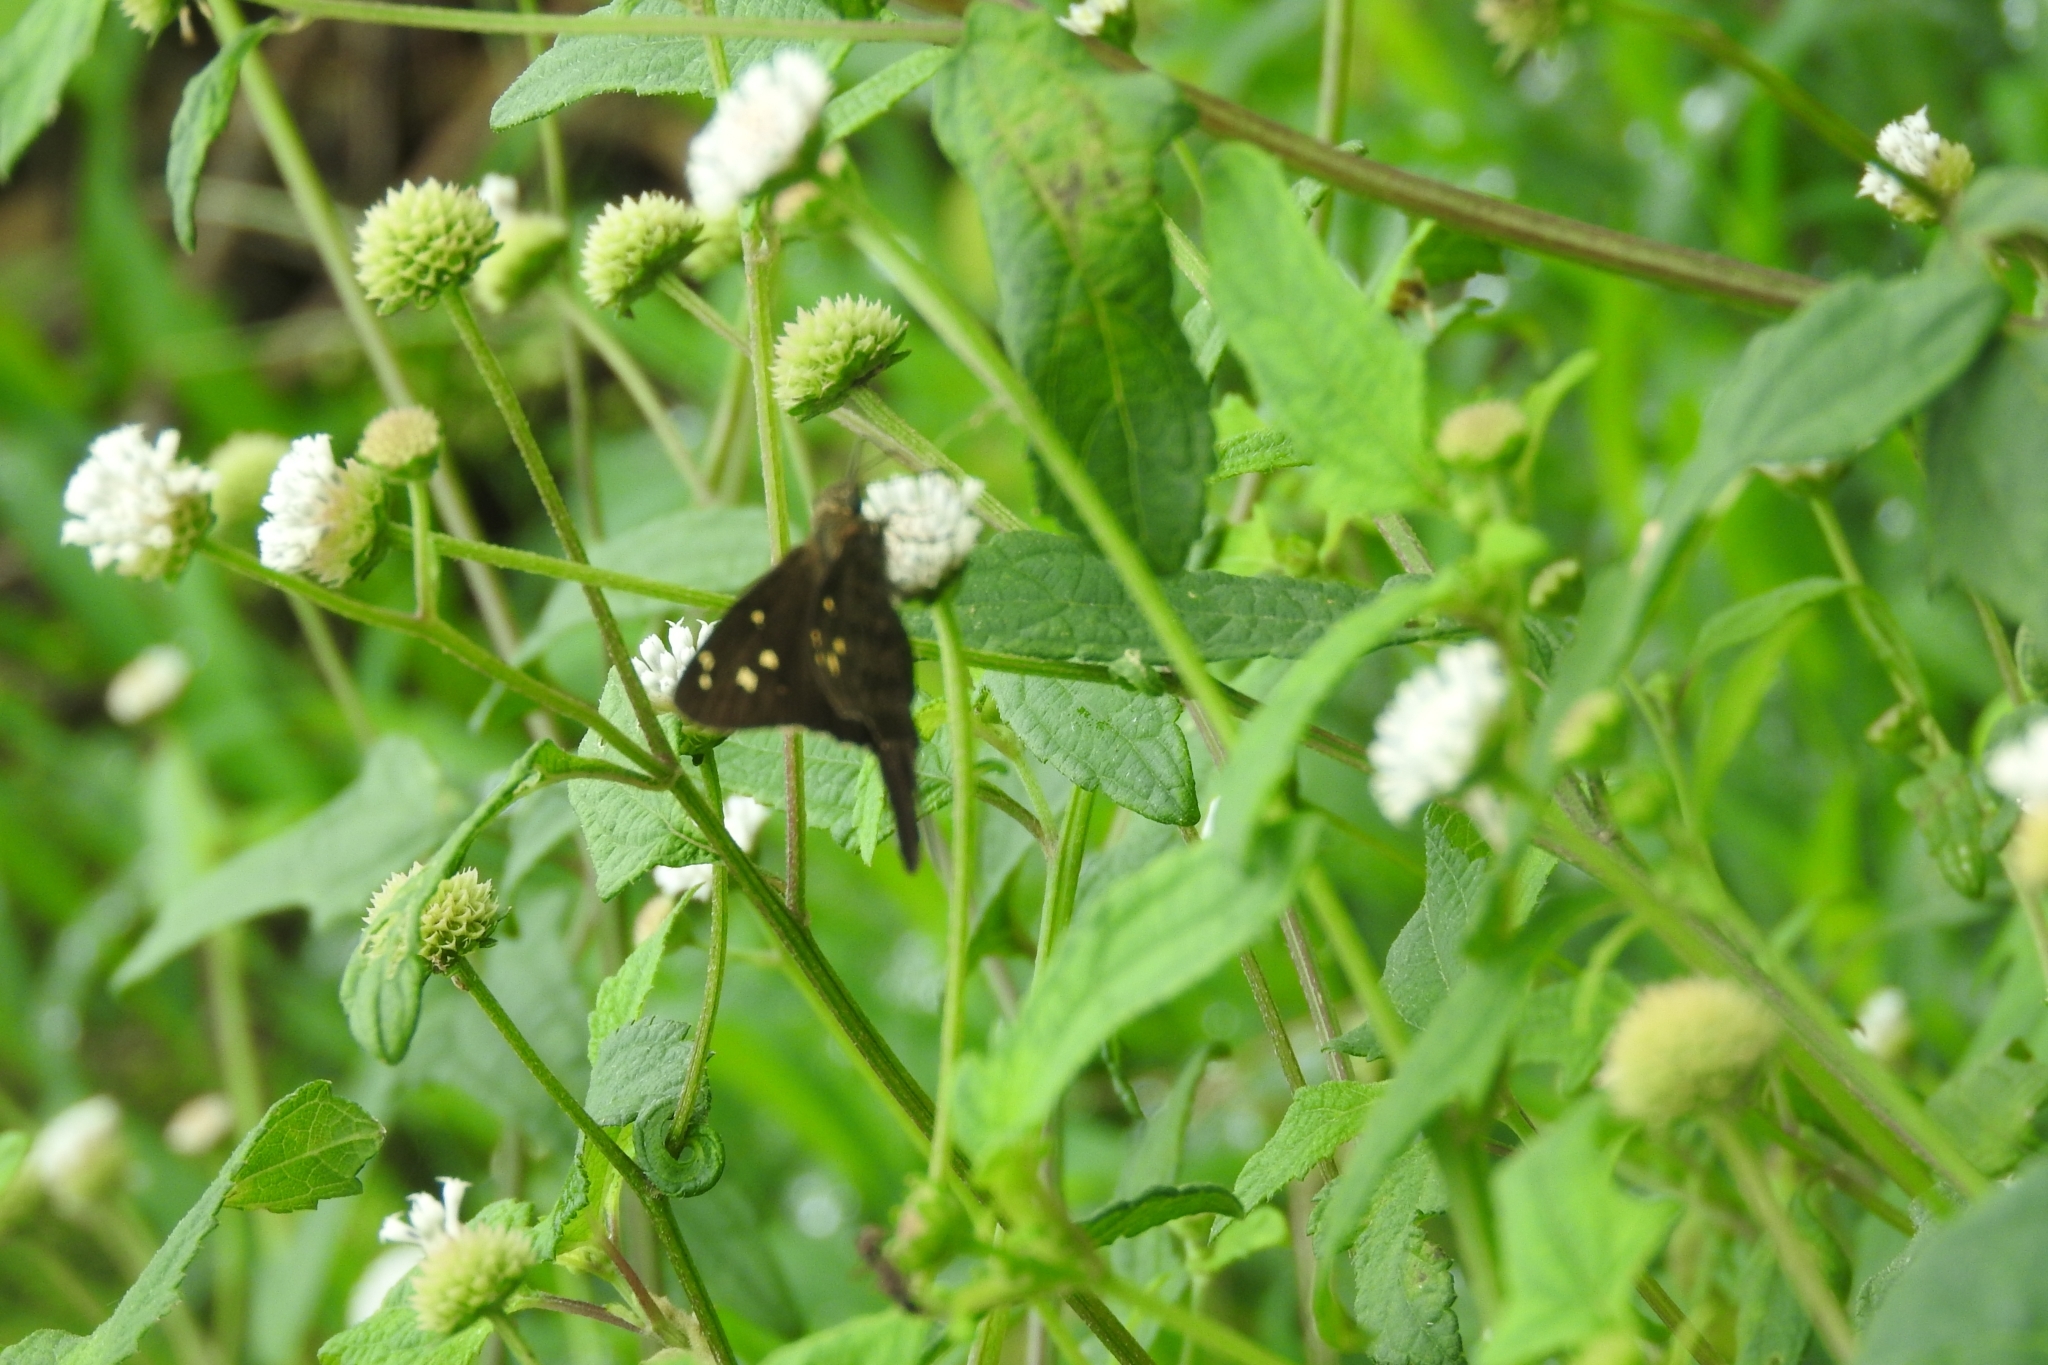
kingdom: Animalia
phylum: Arthropoda
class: Insecta
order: Lepidoptera
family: Hesperiidae
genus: Thorybes
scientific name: Thorybes
